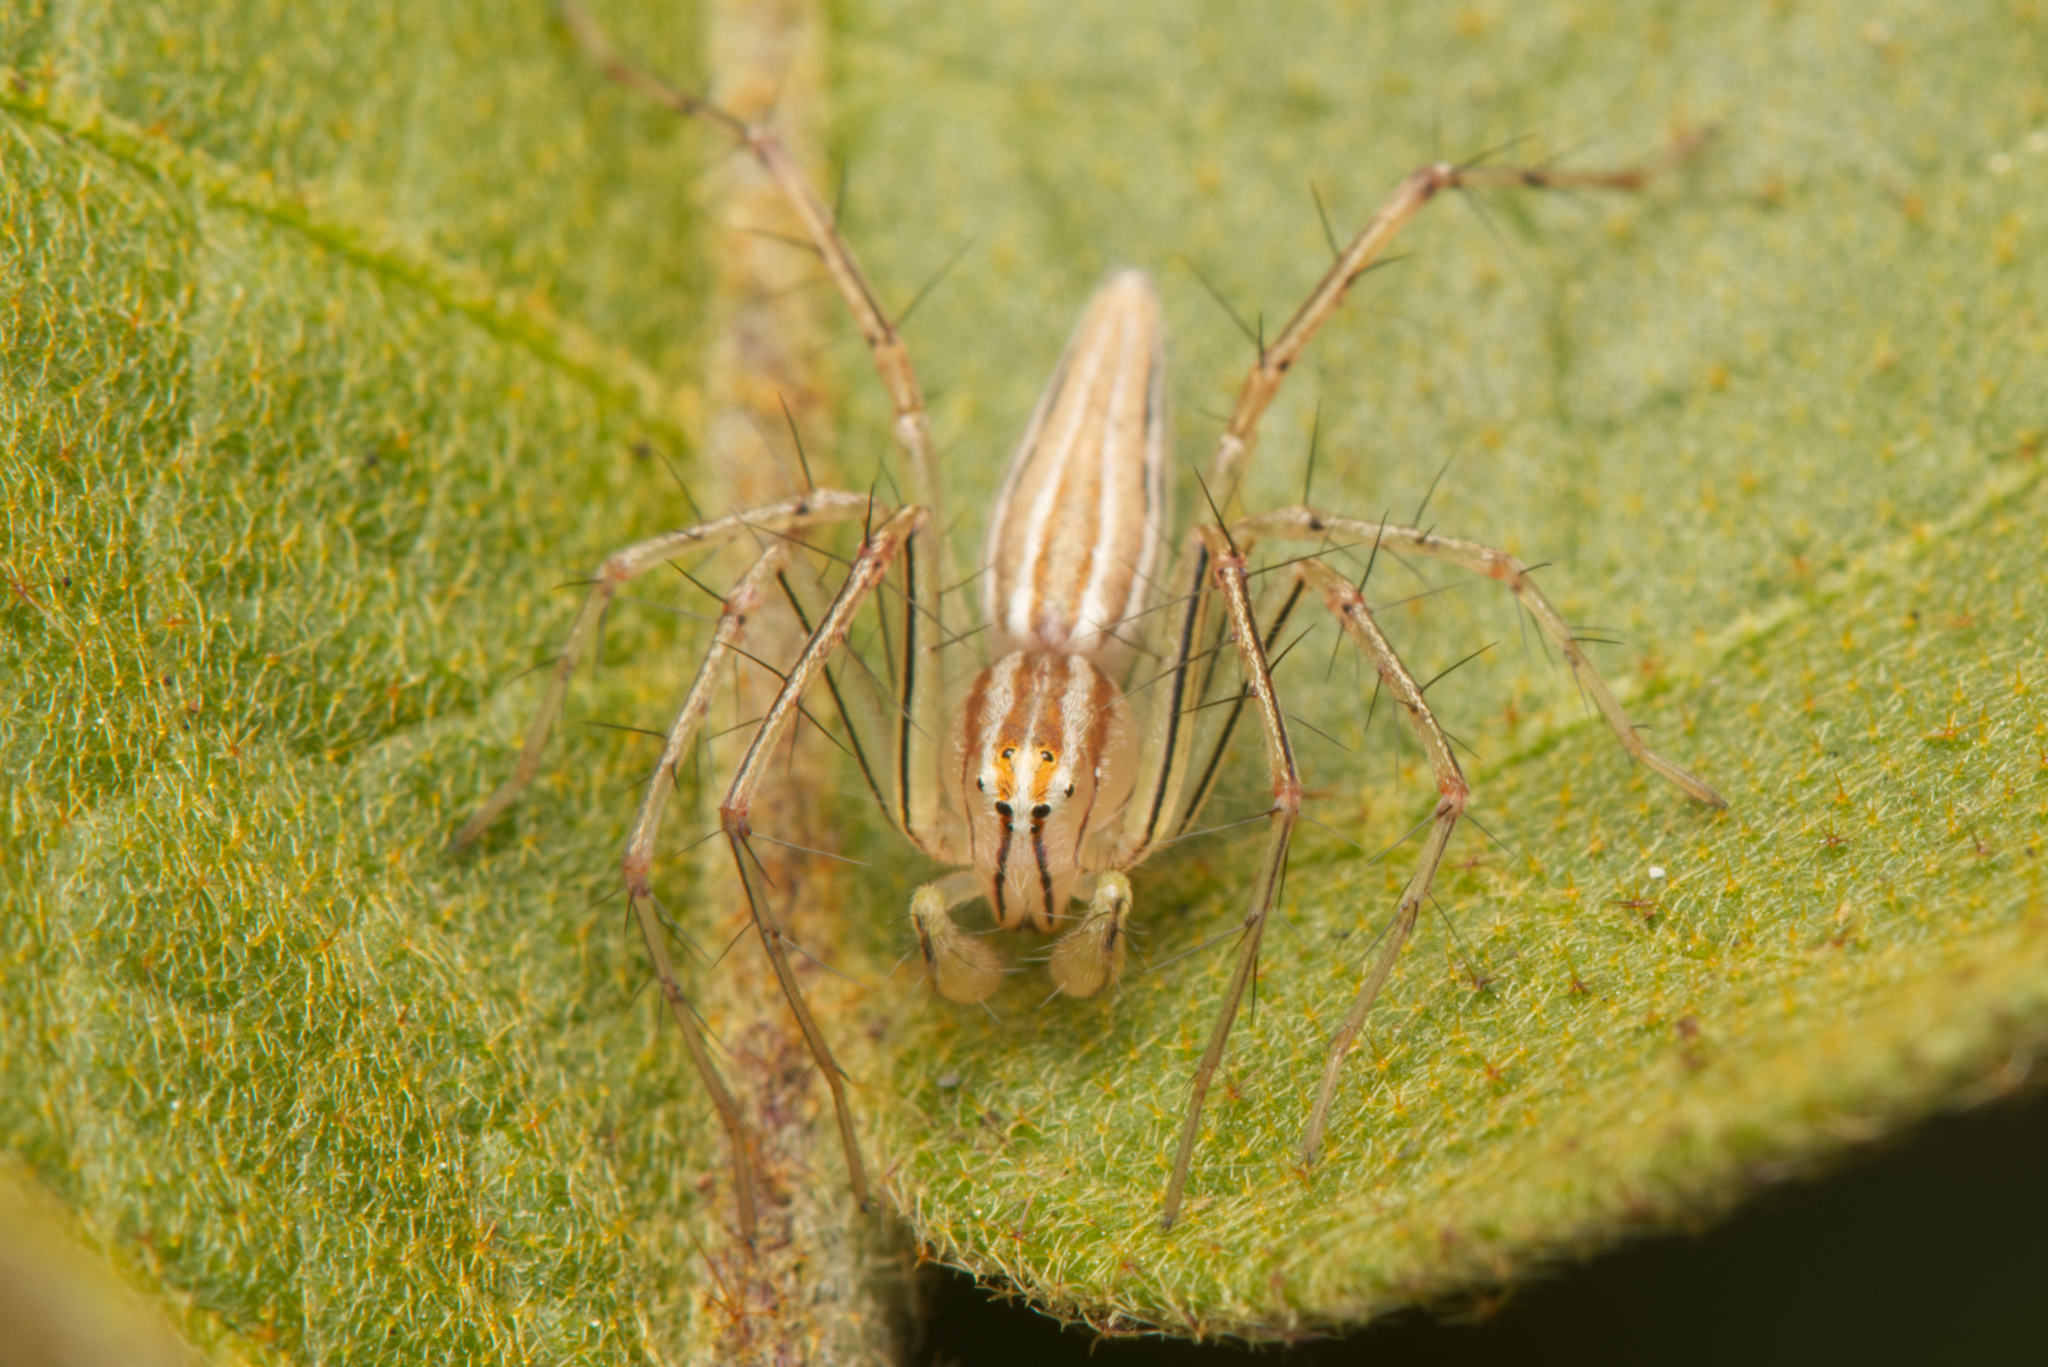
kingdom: Animalia
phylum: Arthropoda
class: Arachnida
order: Araneae
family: Oxyopidae
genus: Oxyopes
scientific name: Oxyopes macilentus
